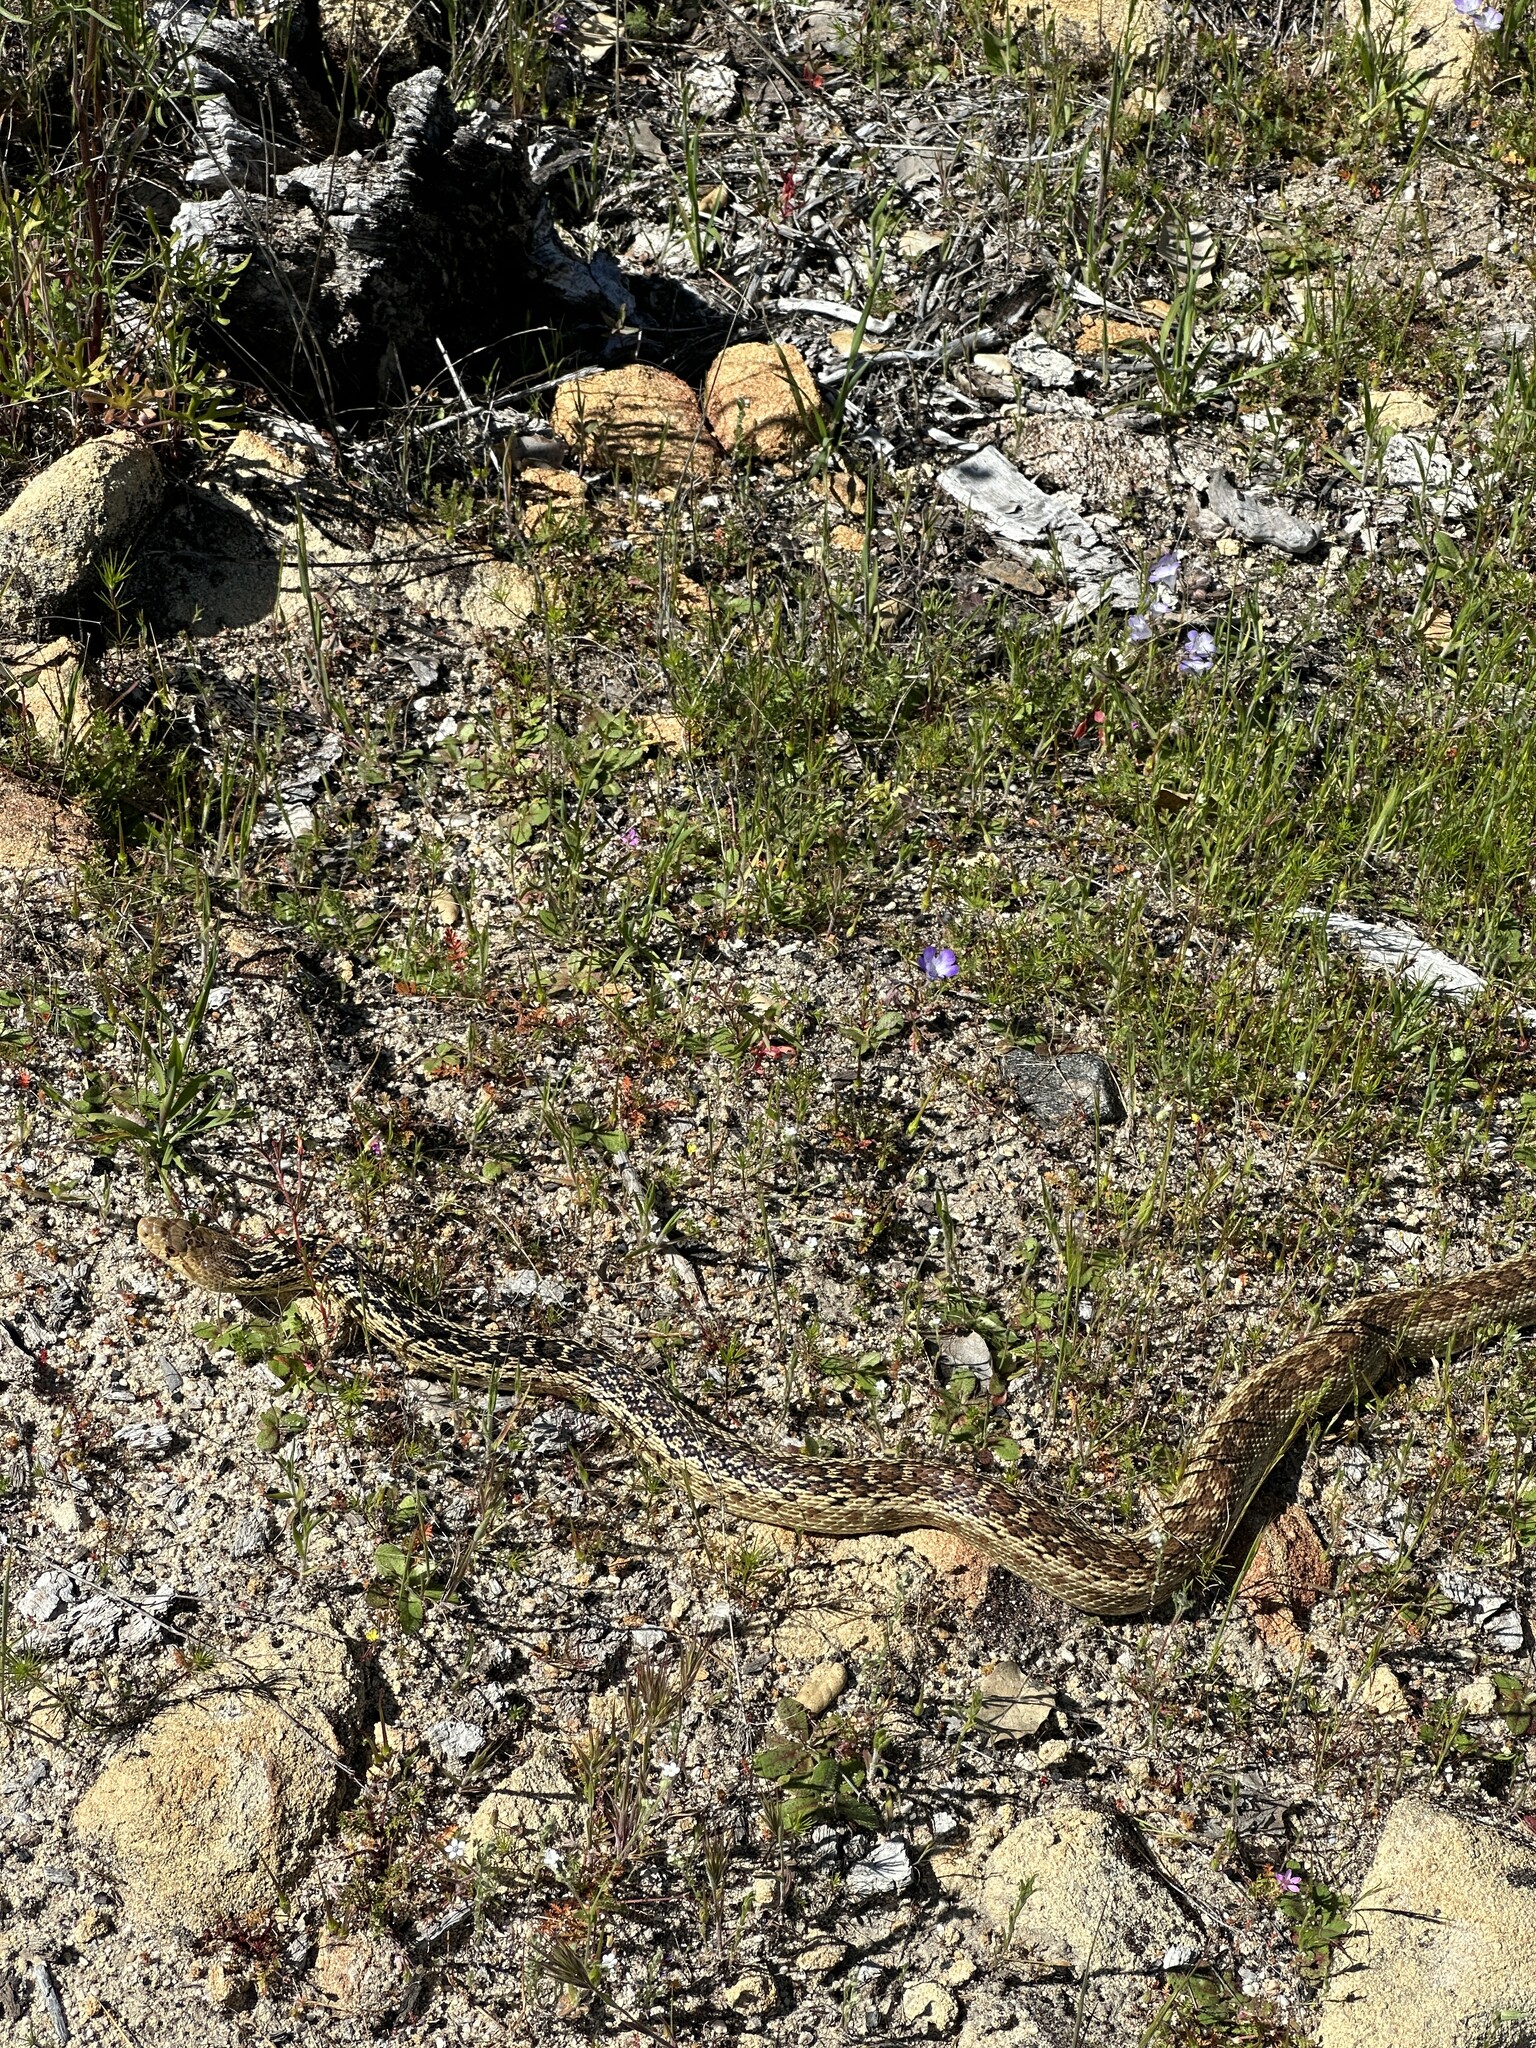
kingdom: Animalia
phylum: Chordata
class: Squamata
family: Colubridae
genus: Pituophis
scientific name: Pituophis catenifer
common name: Gopher snake
